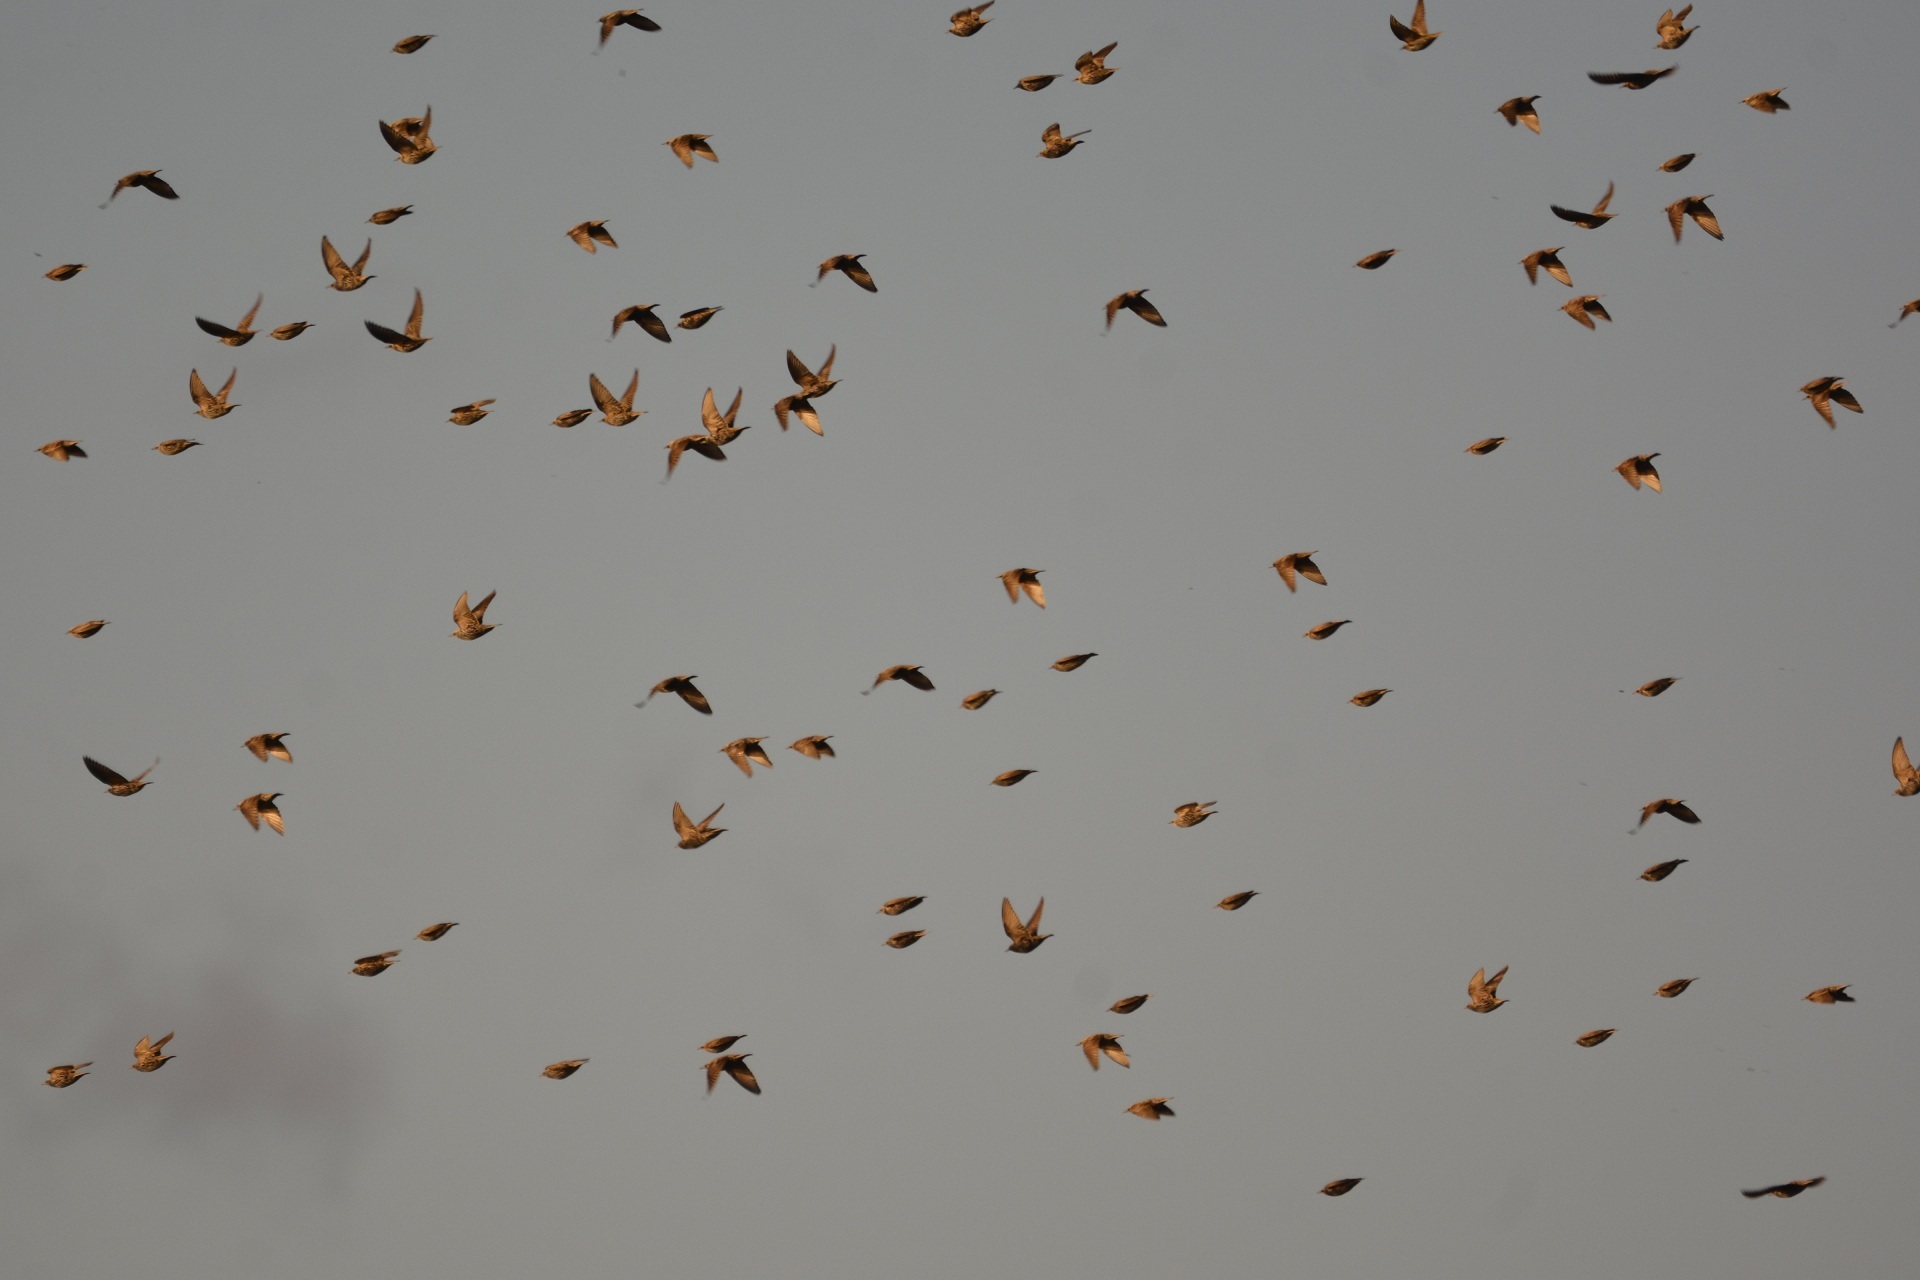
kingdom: Animalia
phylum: Chordata
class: Aves
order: Passeriformes
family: Sturnidae
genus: Sturnus
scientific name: Sturnus vulgaris
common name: Common starling
